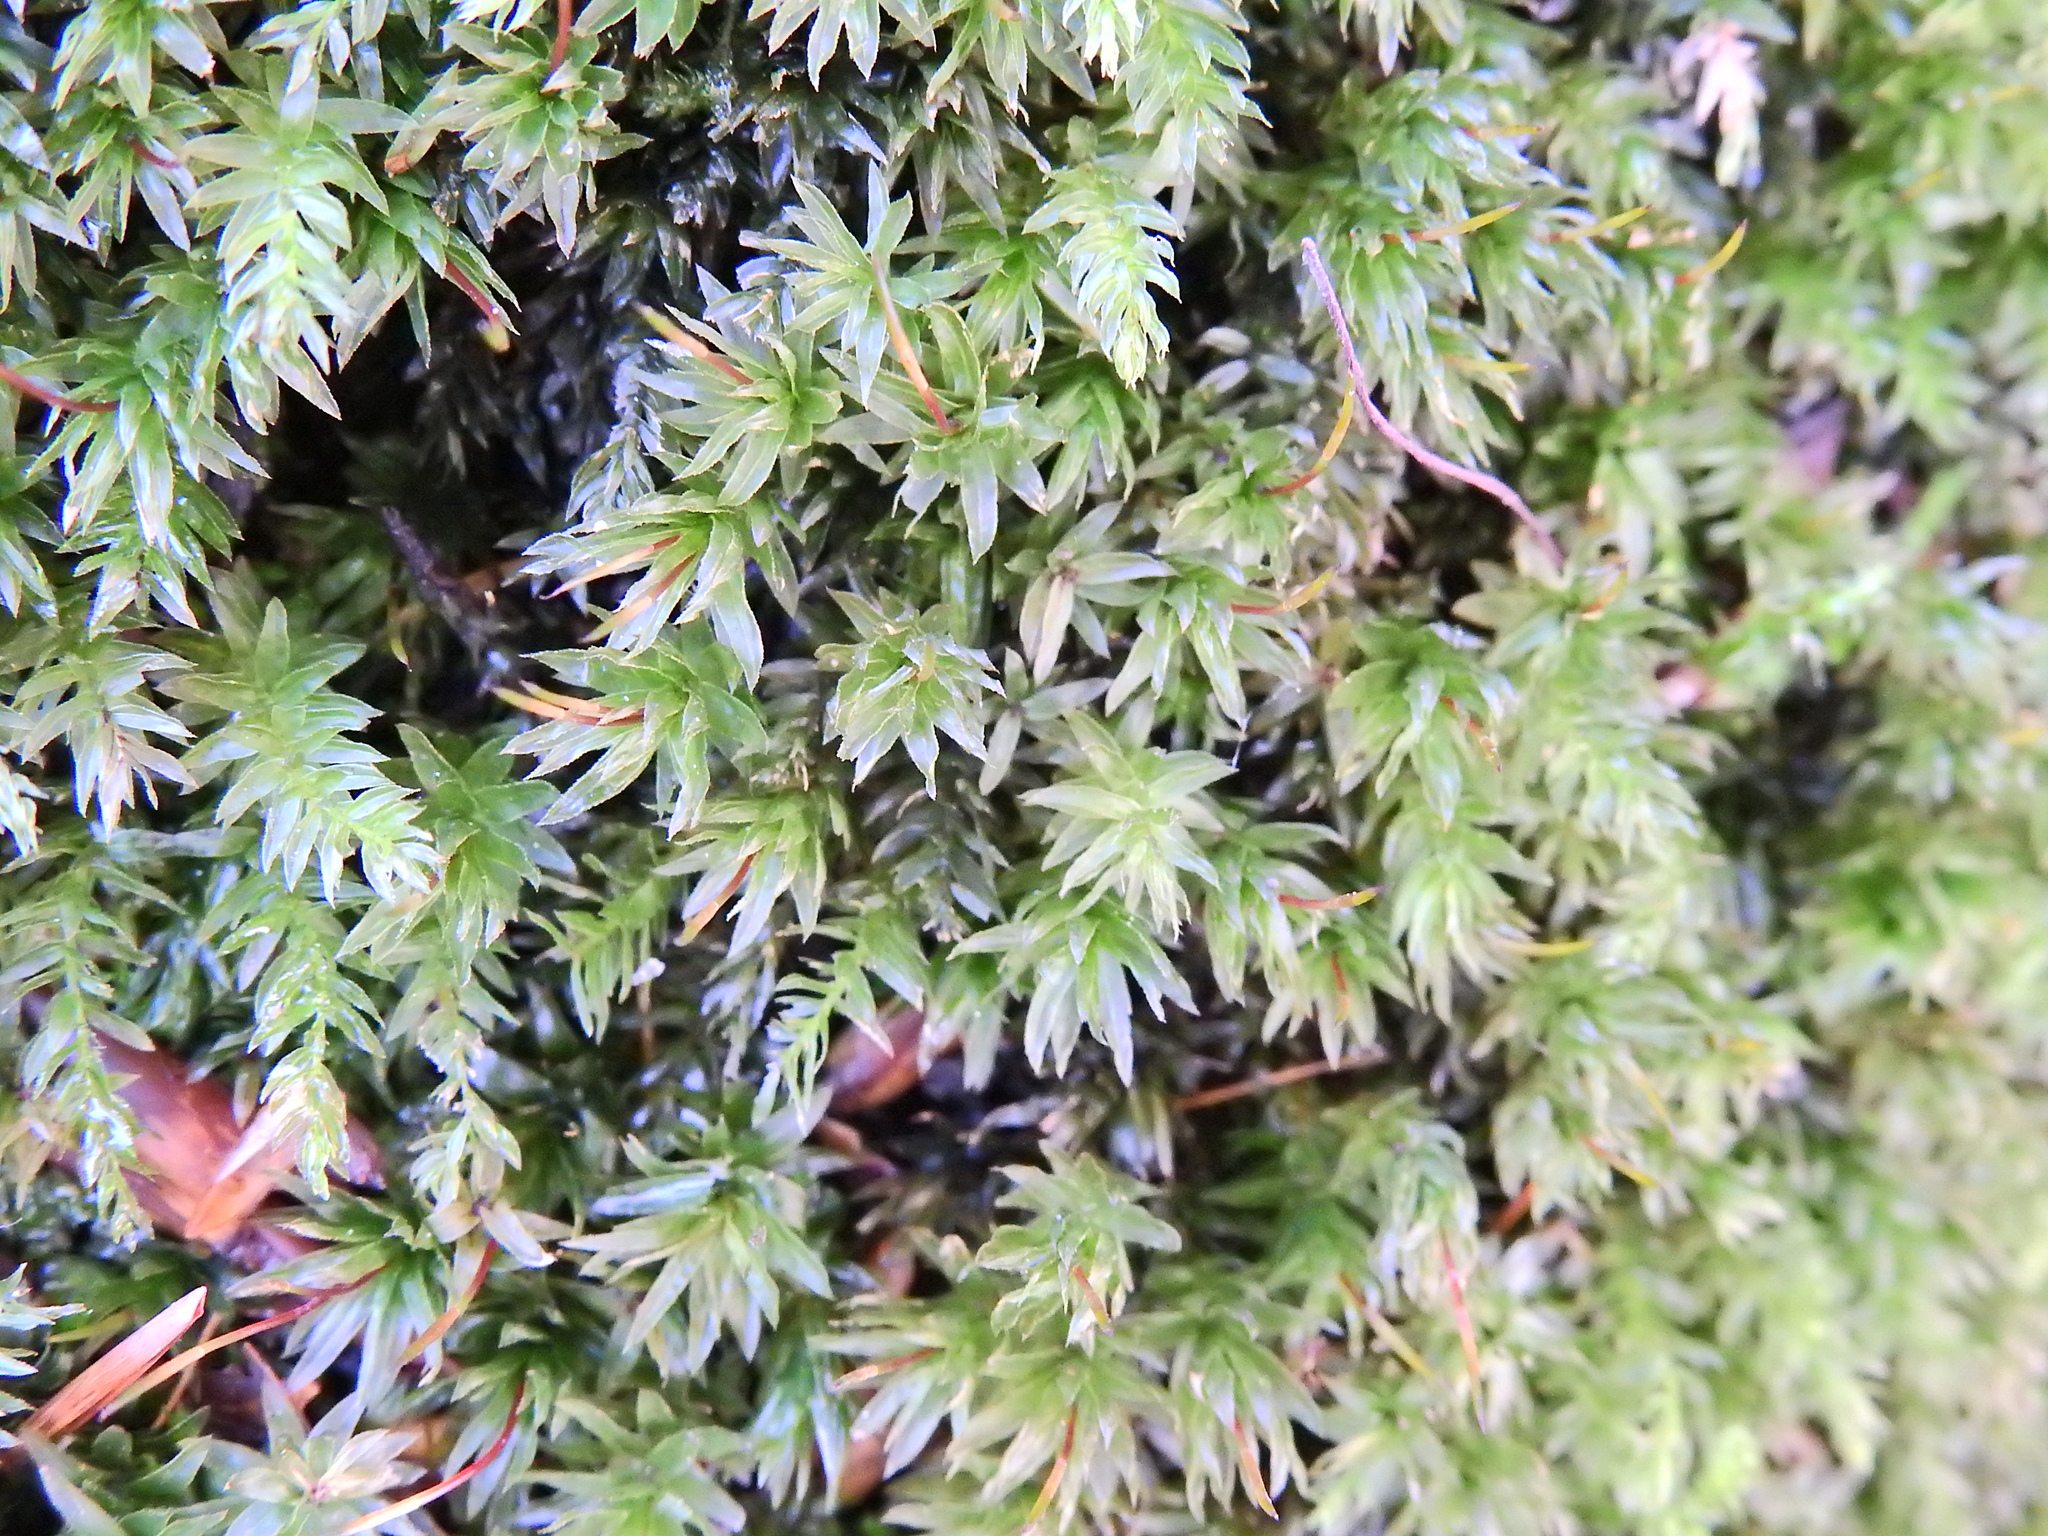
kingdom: Plantae
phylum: Bryophyta
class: Bryopsida
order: Bryales
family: Mniaceae
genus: Mnium
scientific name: Mnium hornum
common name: Swan's-neck leafy moss
